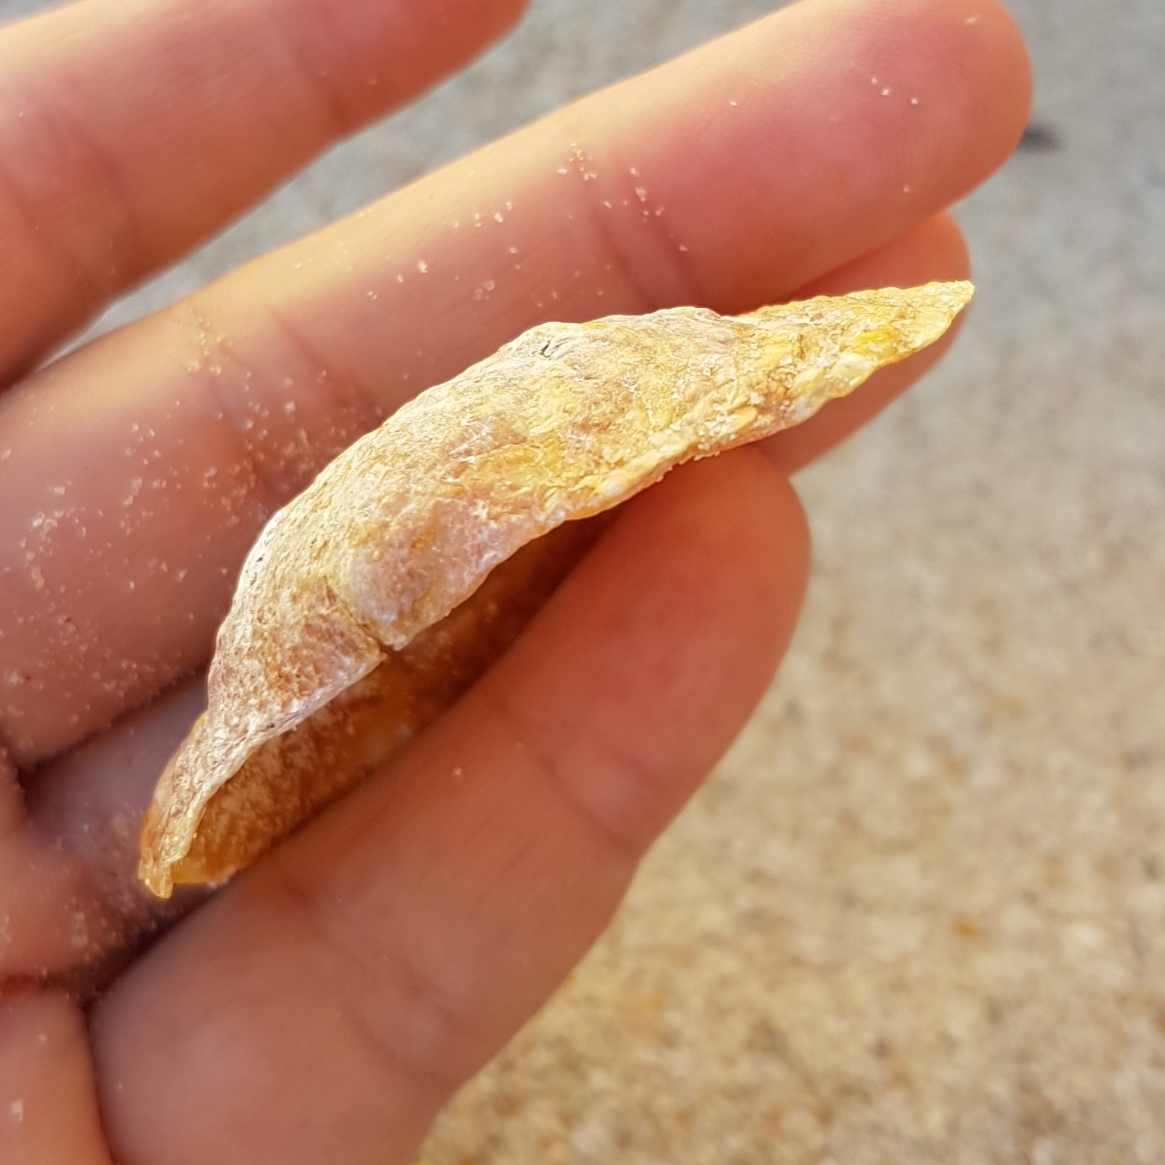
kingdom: Animalia
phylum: Mollusca
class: Bivalvia
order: Pectinida
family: Anomiidae
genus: Anomia
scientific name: Anomia ephippium
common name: Saddle oyster
